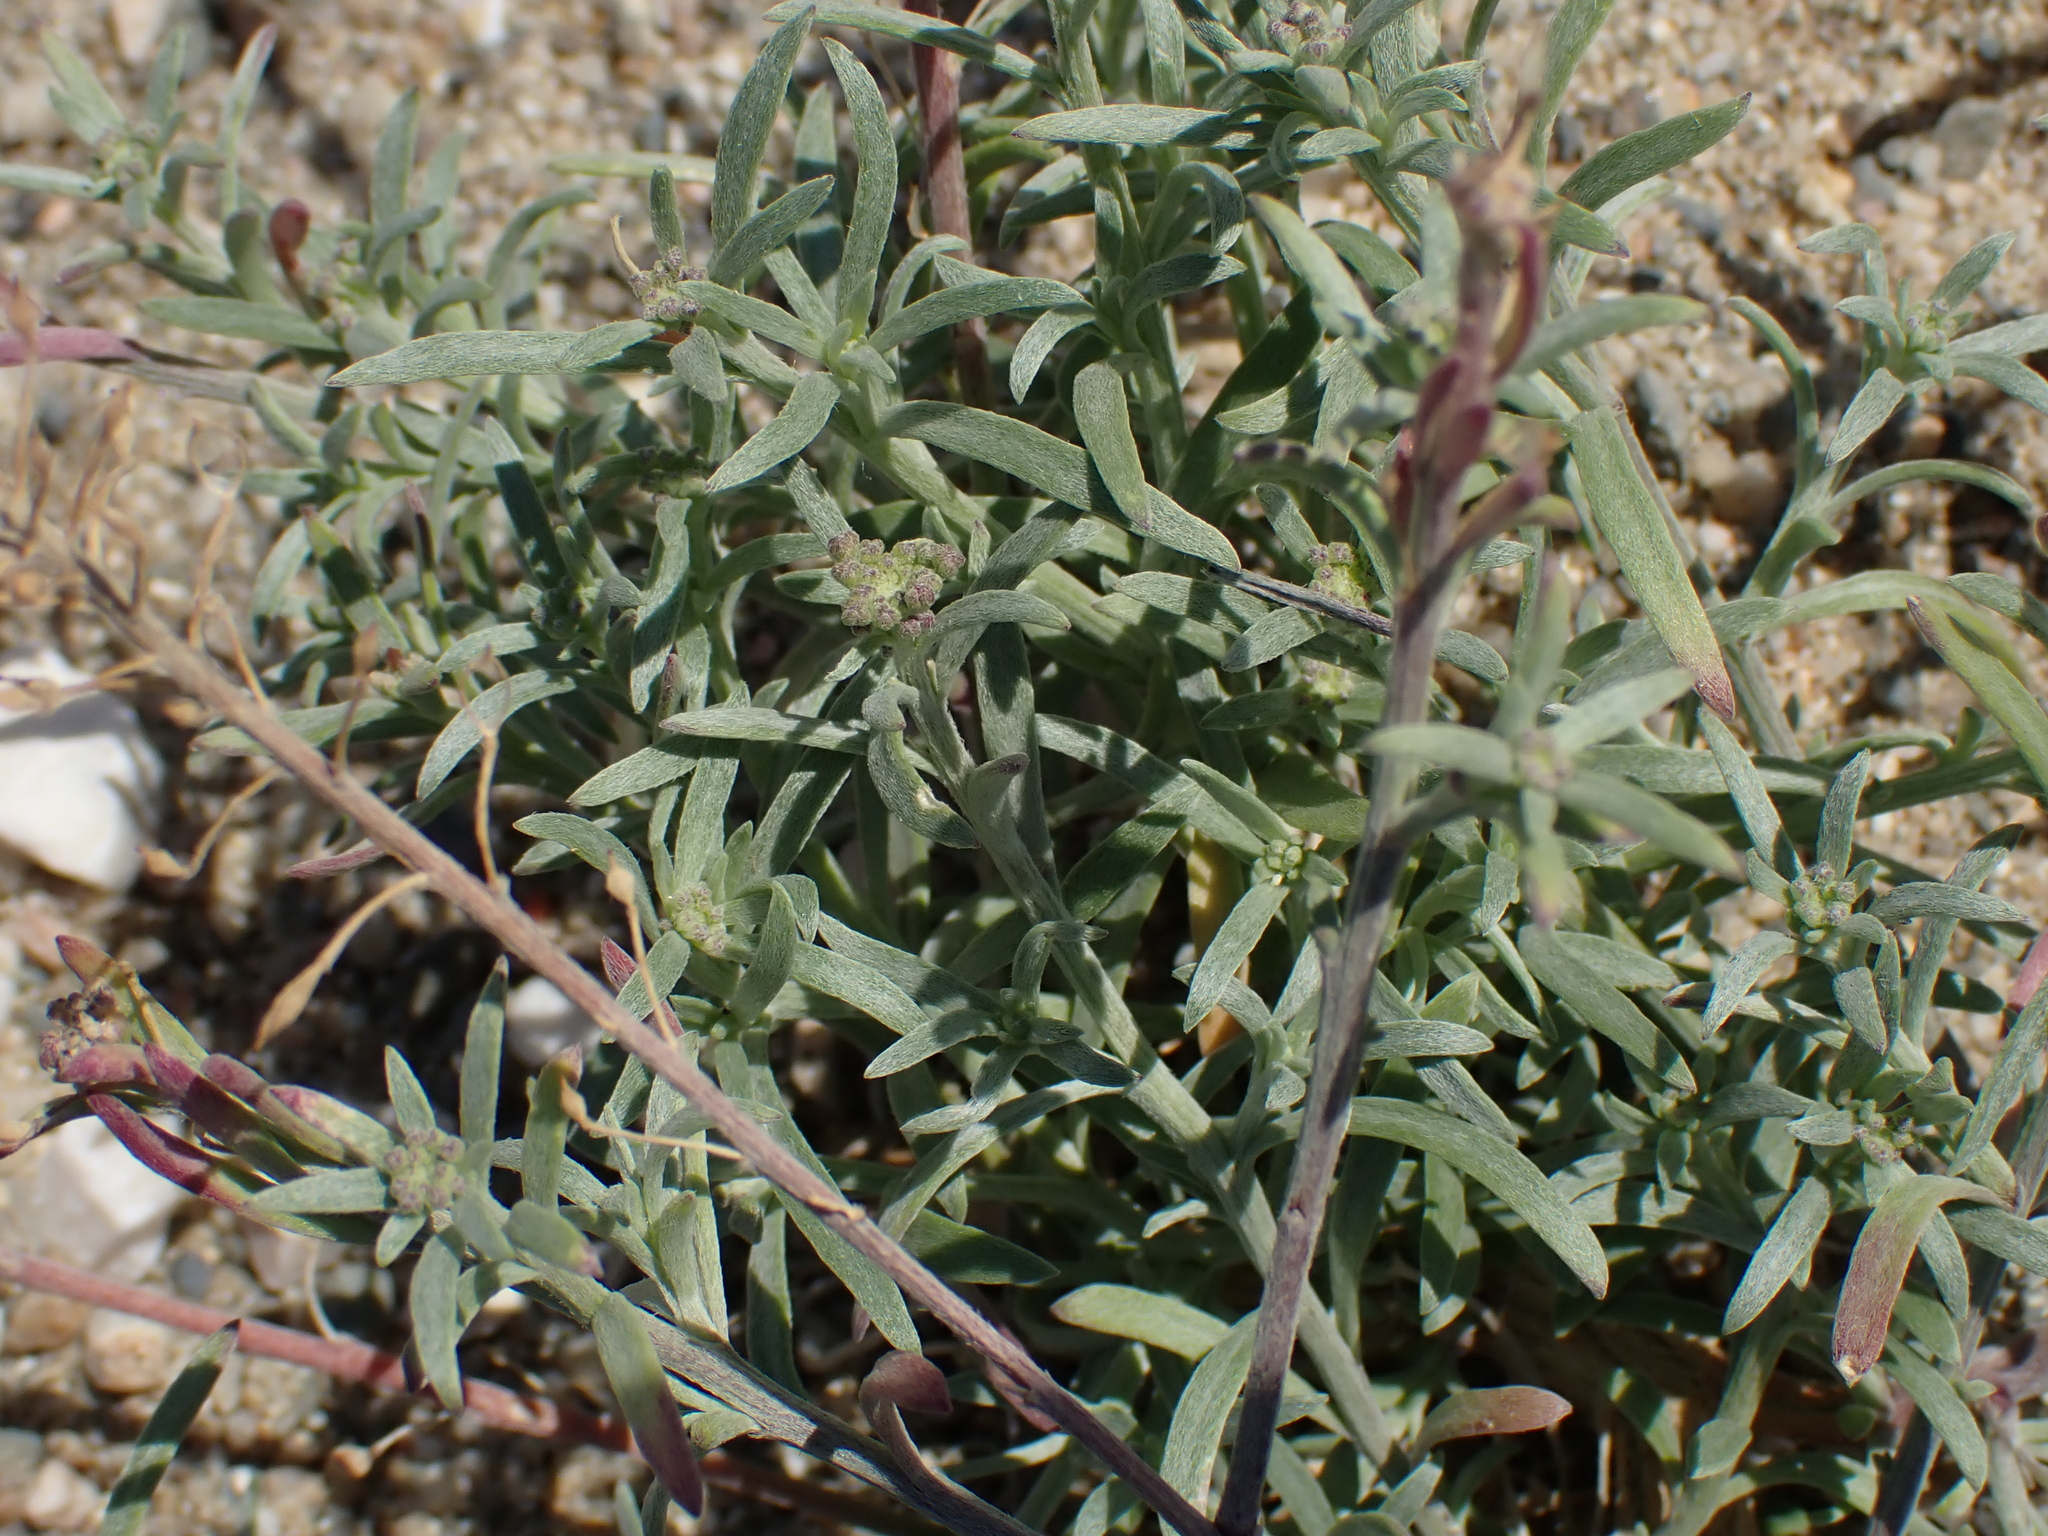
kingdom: Plantae
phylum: Tracheophyta
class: Magnoliopsida
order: Brassicales
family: Brassicaceae
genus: Lobularia
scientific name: Lobularia maritima
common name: Sweet alison
